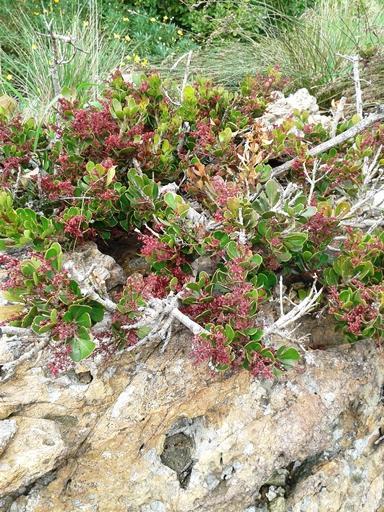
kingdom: Plantae
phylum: Tracheophyta
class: Magnoliopsida
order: Sapindales
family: Anacardiaceae
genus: Searsia
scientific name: Searsia scytophylla
